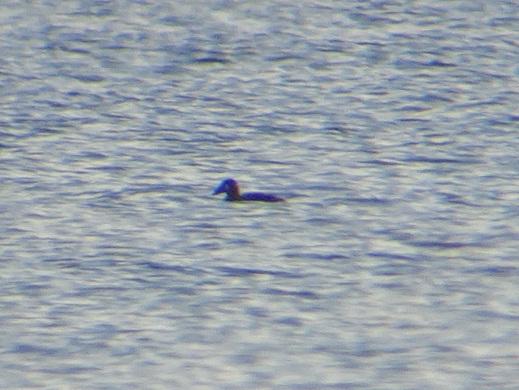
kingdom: Animalia
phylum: Chordata
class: Aves
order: Anseriformes
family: Anatidae
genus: Melanitta
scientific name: Melanitta perspicillata
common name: Surf scoter
